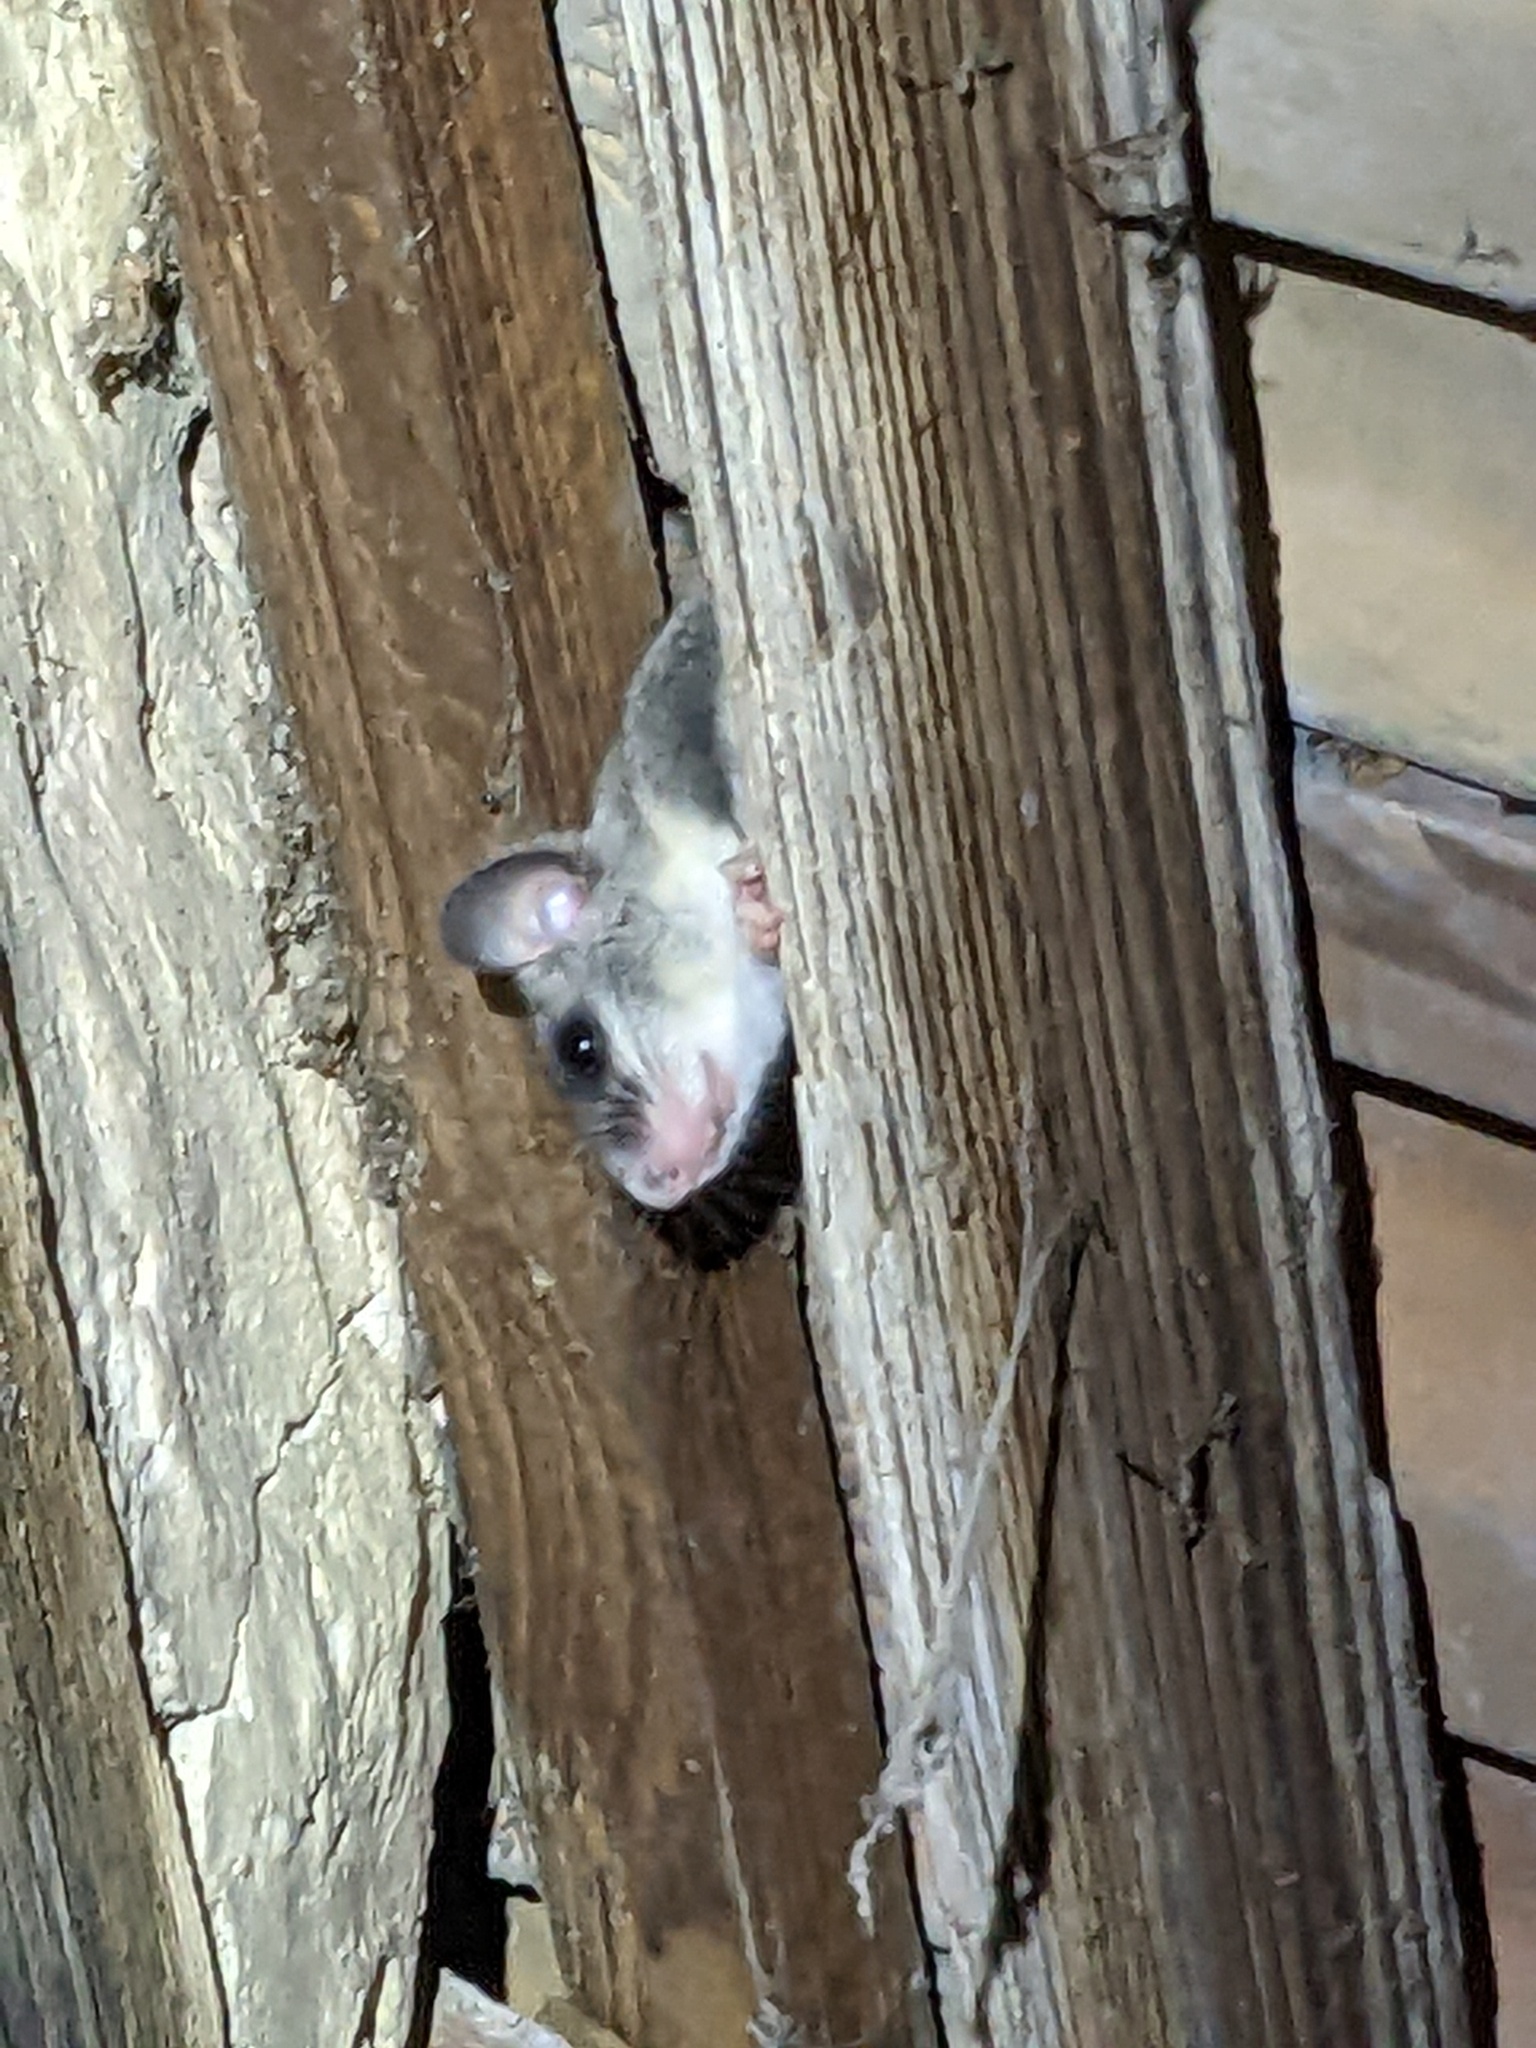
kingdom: Animalia
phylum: Chordata
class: Mammalia
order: Rodentia
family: Gliridae
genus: Glis
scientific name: Glis glis
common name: Fat dormouse
